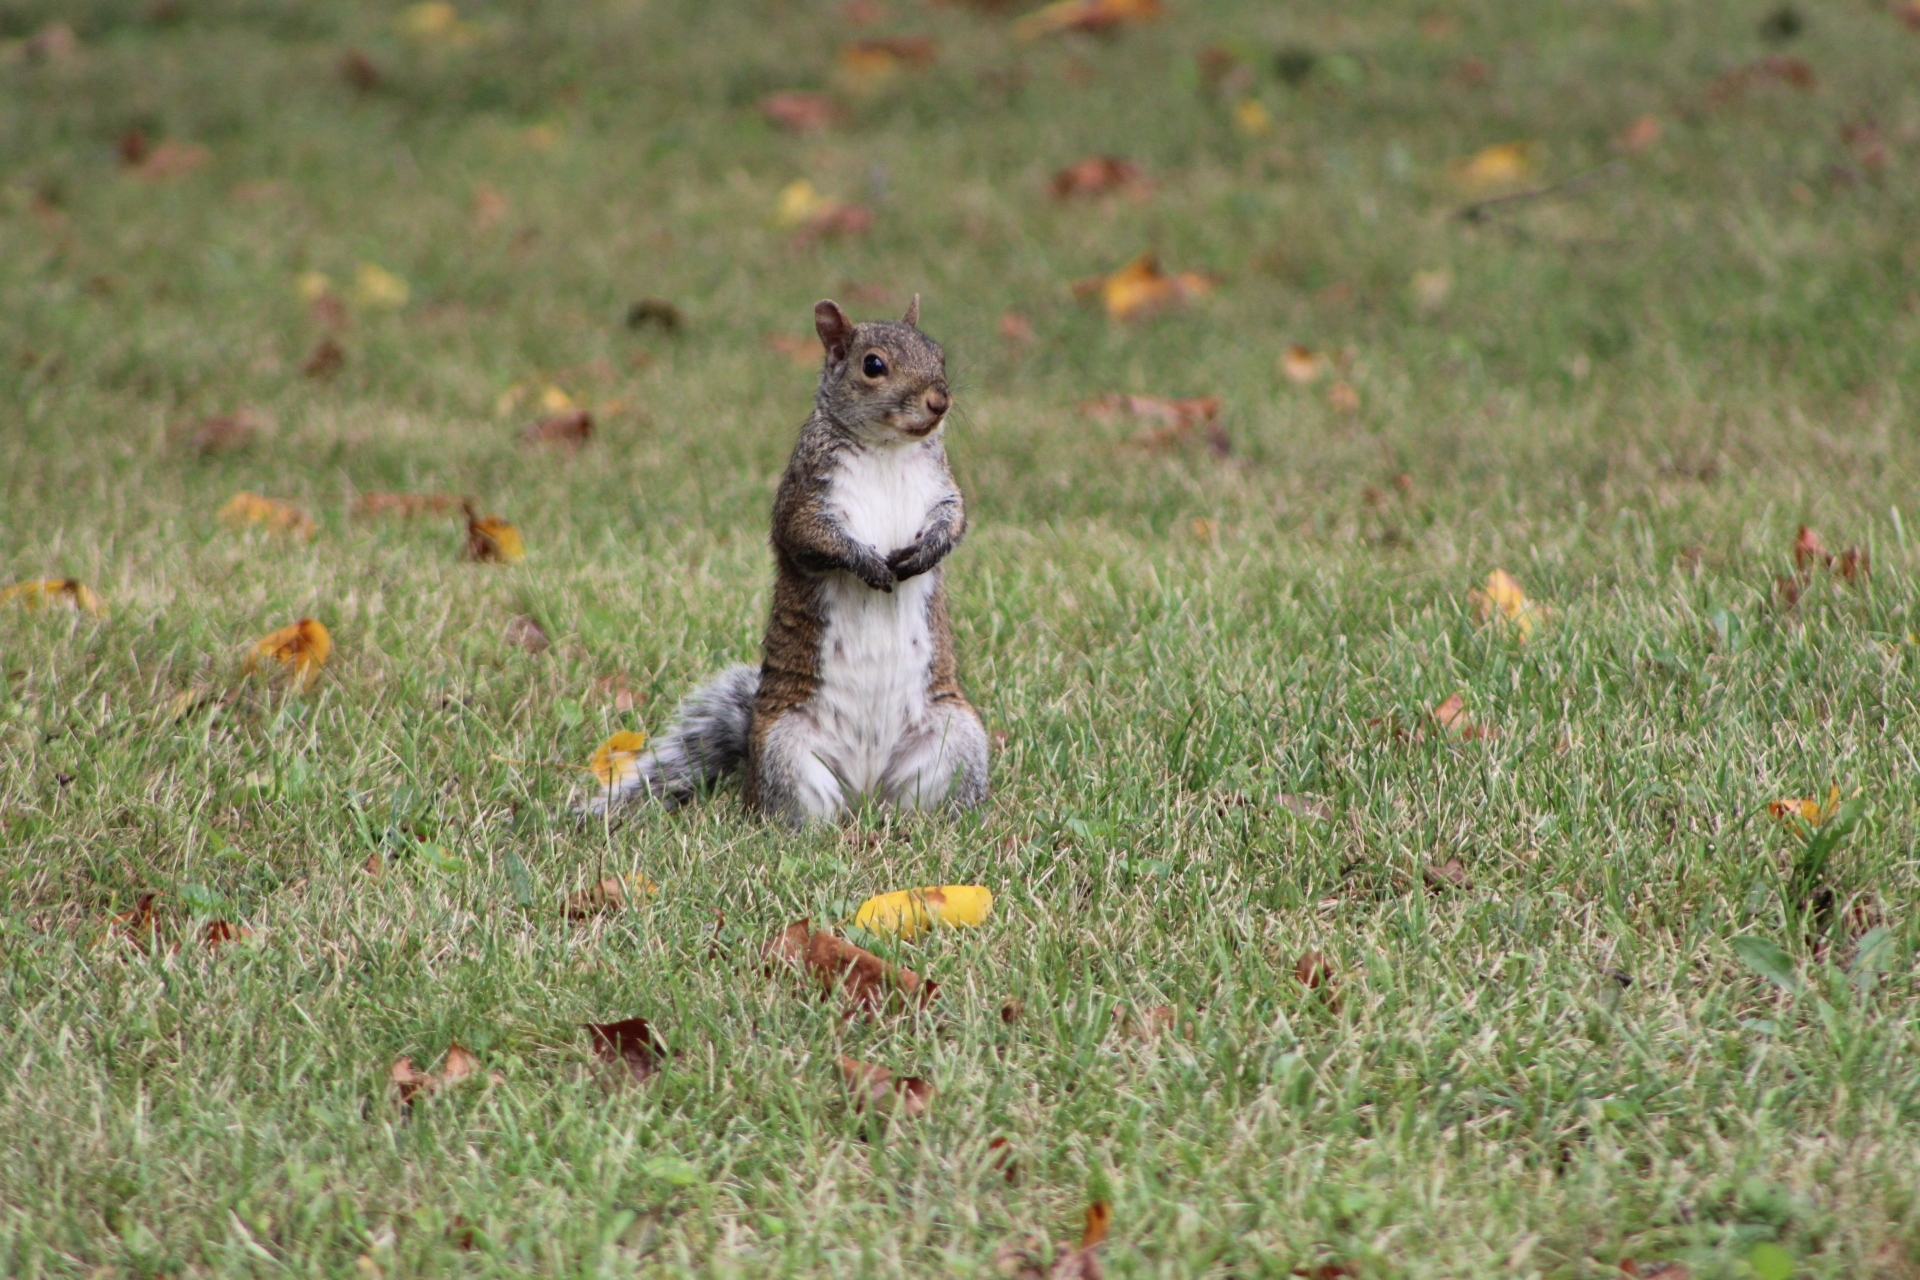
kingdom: Animalia
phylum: Chordata
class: Mammalia
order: Rodentia
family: Sciuridae
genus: Sciurus
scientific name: Sciurus carolinensis
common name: Eastern gray squirrel
